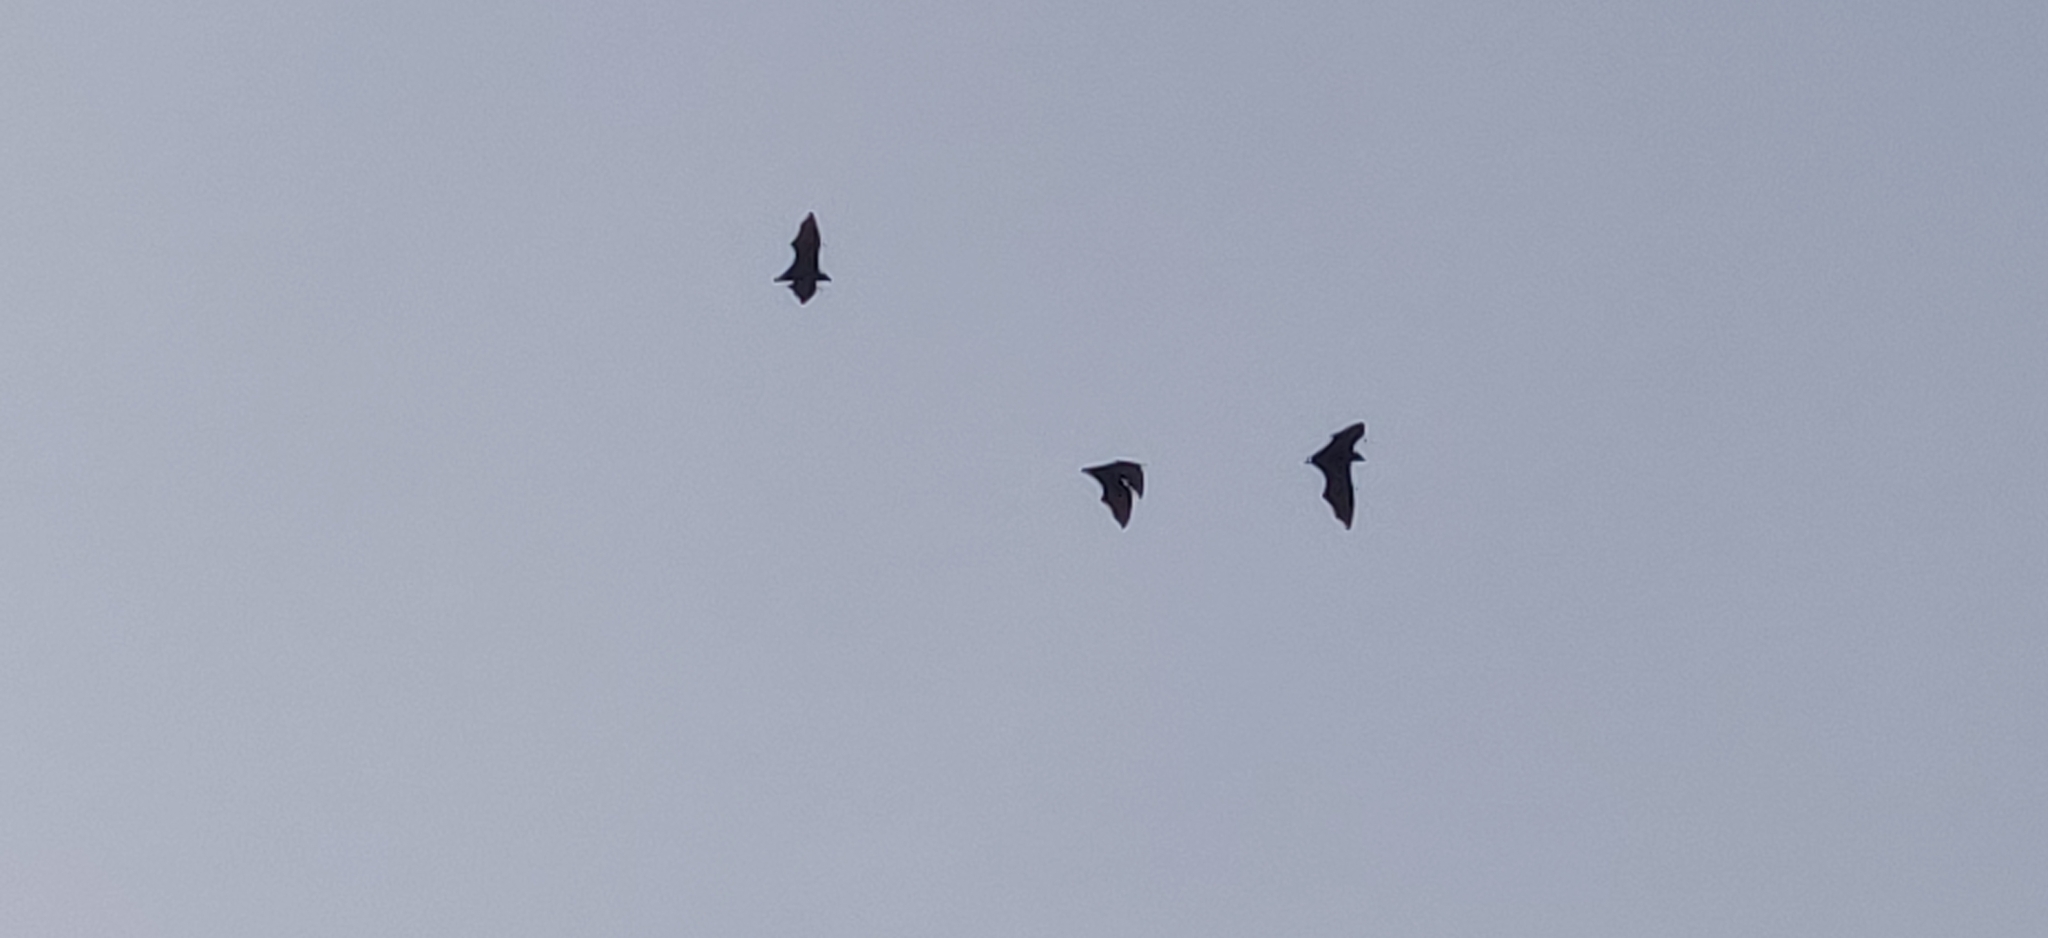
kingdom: Animalia
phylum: Chordata
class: Mammalia
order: Chiroptera
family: Pteropodidae
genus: Pteropus
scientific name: Pteropus vampyrus
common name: Large flying fox
